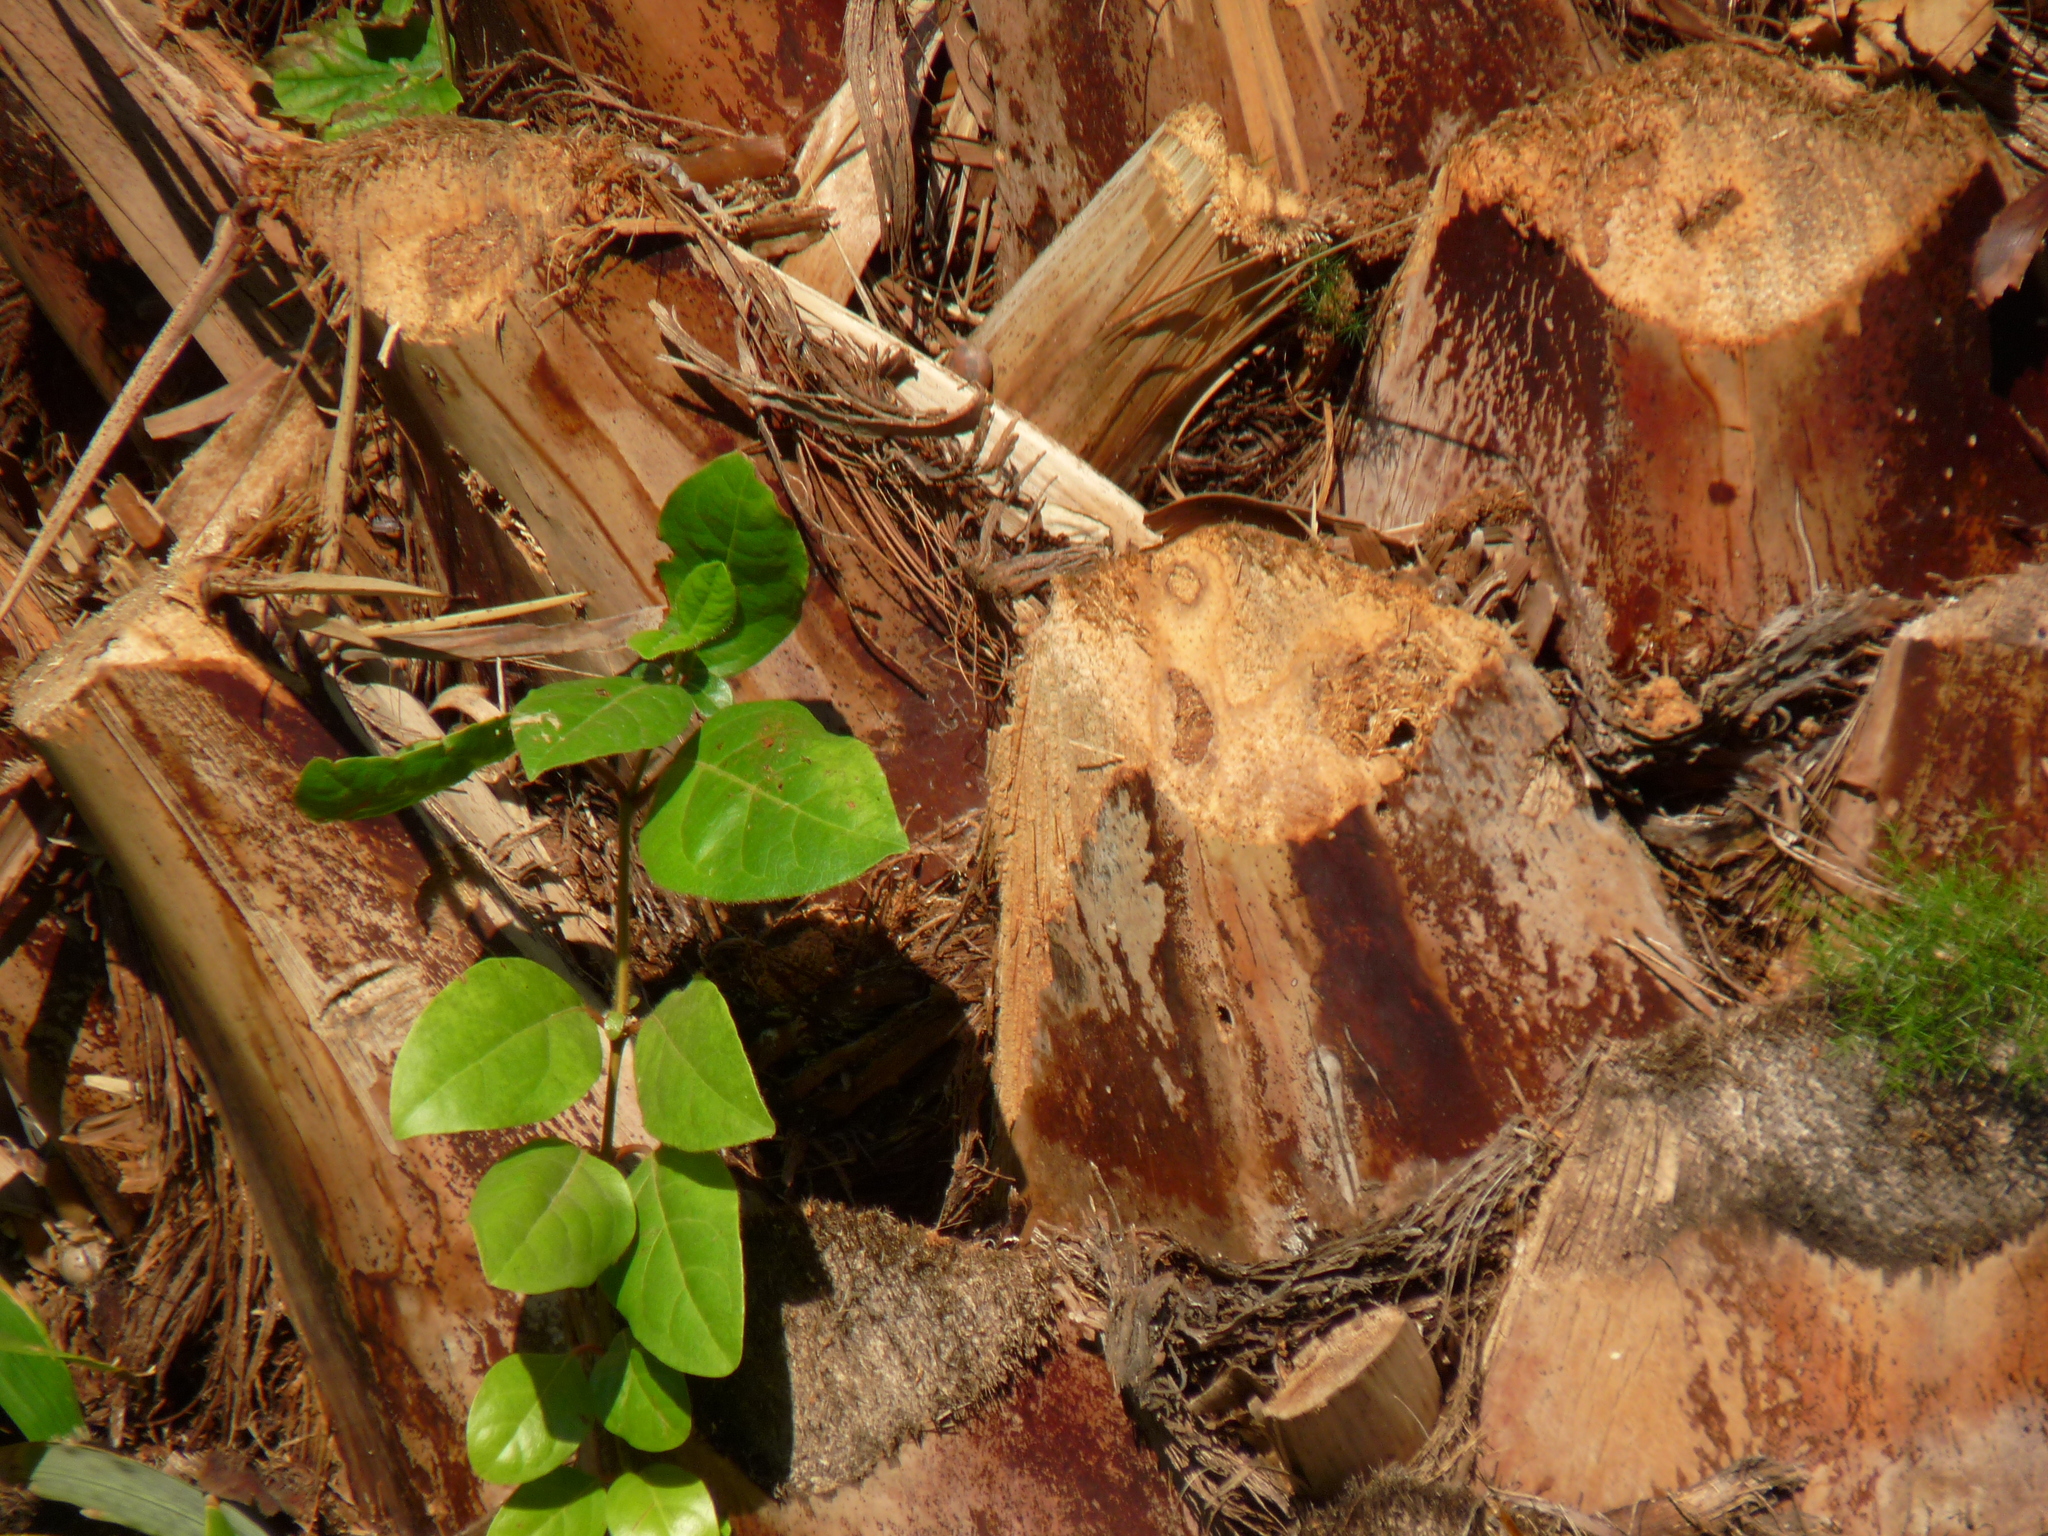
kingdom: Plantae
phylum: Tracheophyta
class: Magnoliopsida
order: Dipsacales
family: Viburnaceae
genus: Viburnum
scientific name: Viburnum tinus
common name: Laurustinus
